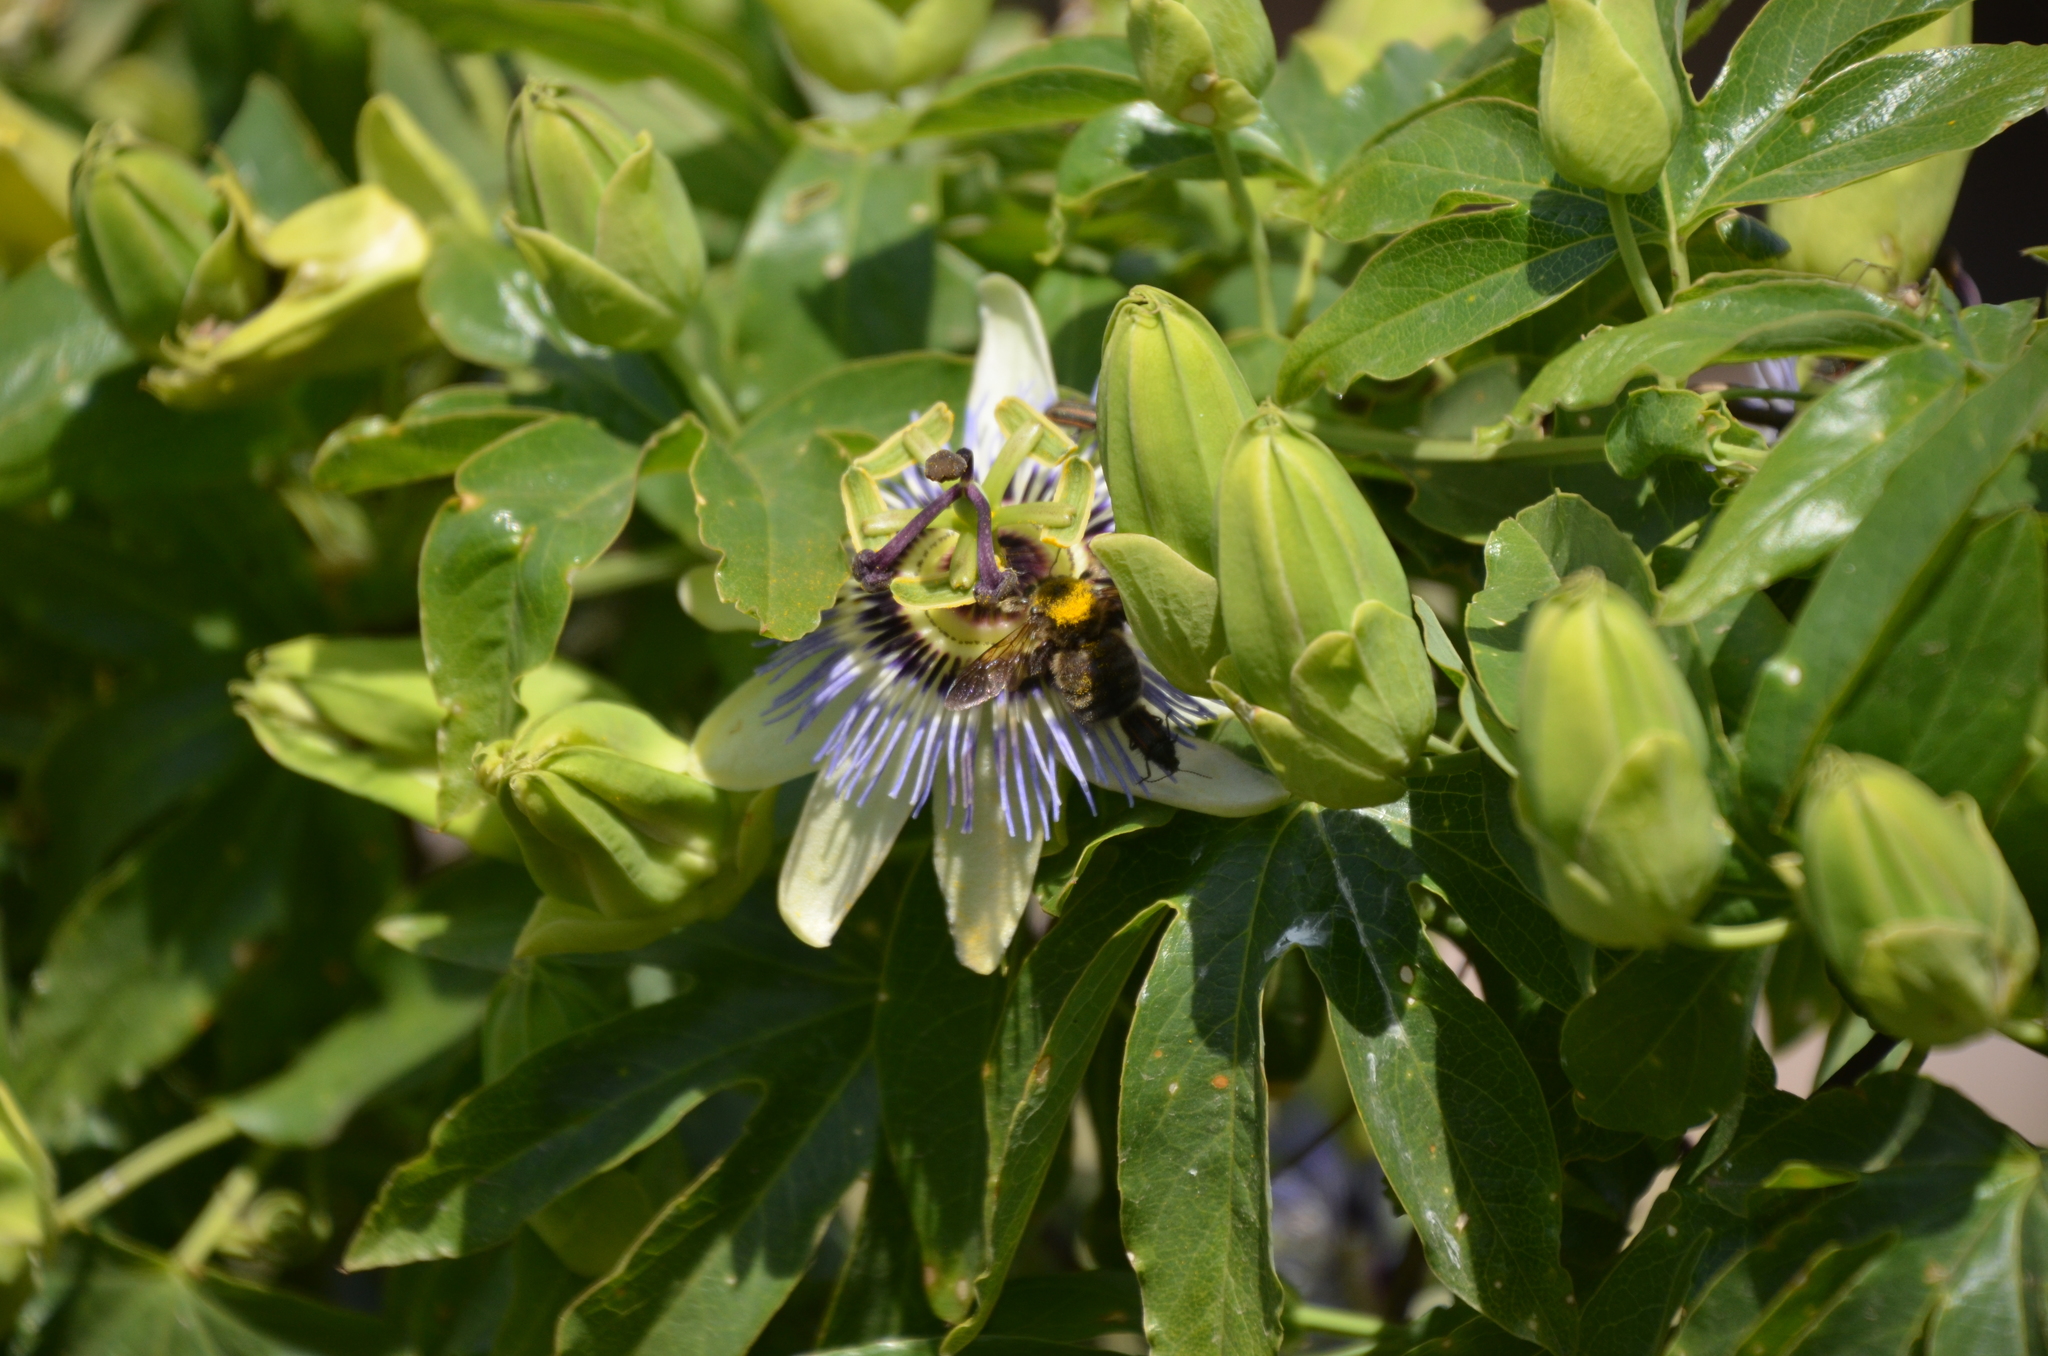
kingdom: Animalia
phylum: Arthropoda
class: Insecta
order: Hymenoptera
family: Apidae
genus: Xylocopa
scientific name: Xylocopa artifex
